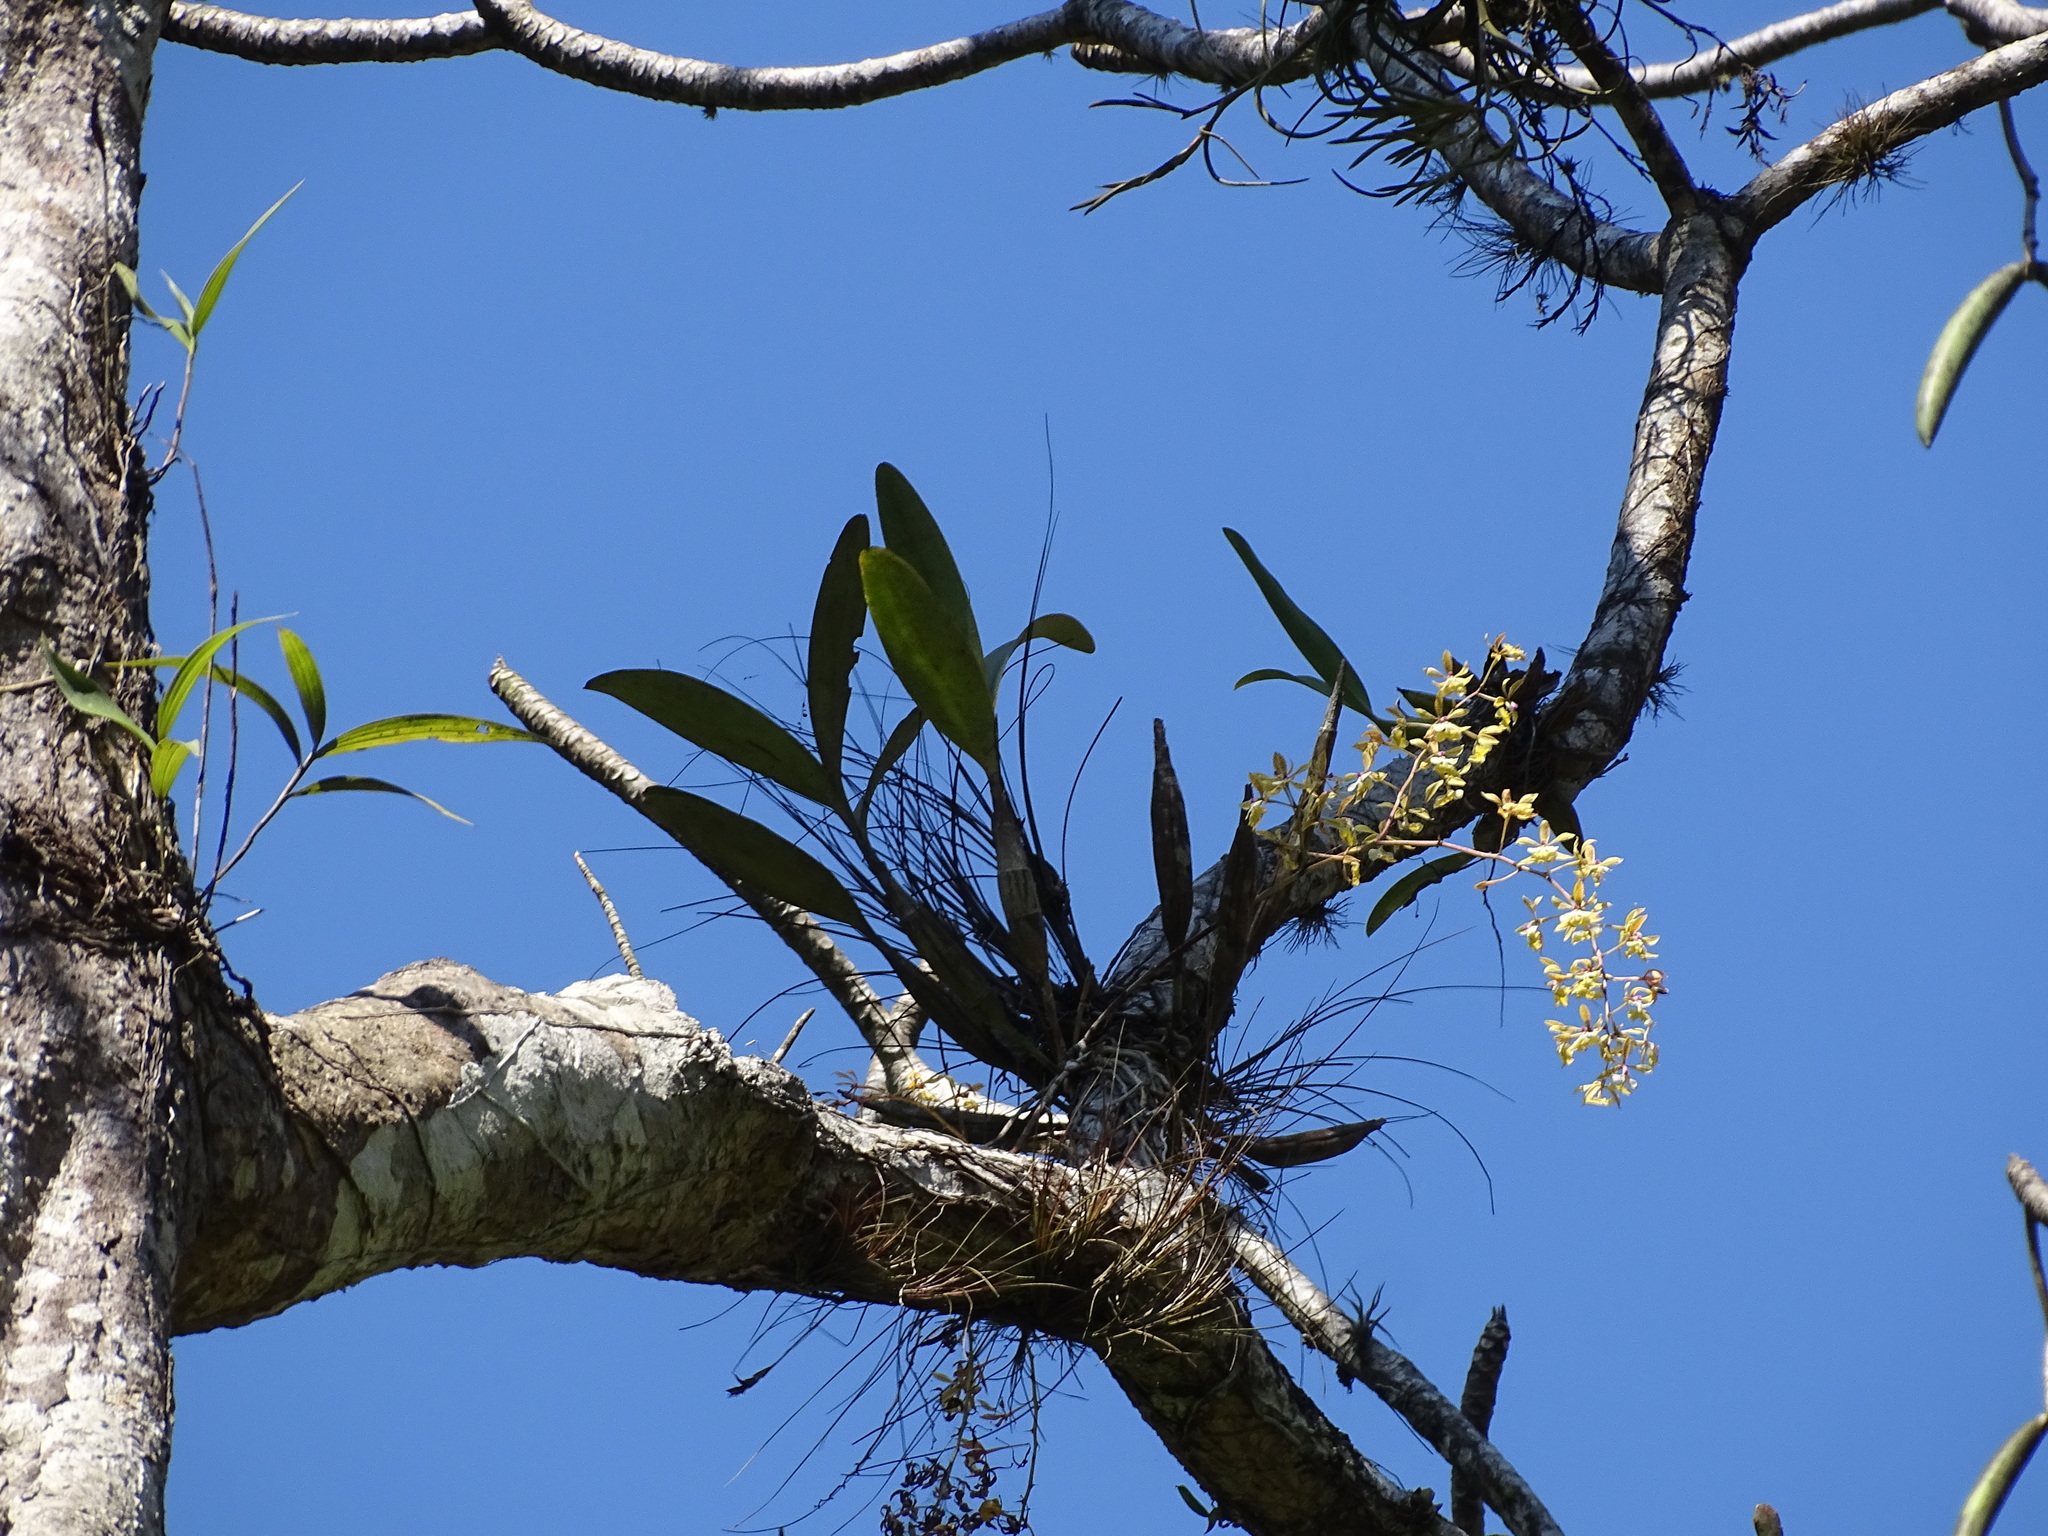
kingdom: Plantae
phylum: Tracheophyta
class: Liliopsida
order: Asparagales
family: Orchidaceae
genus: Epidendrum
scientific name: Epidendrum stamfordianum
